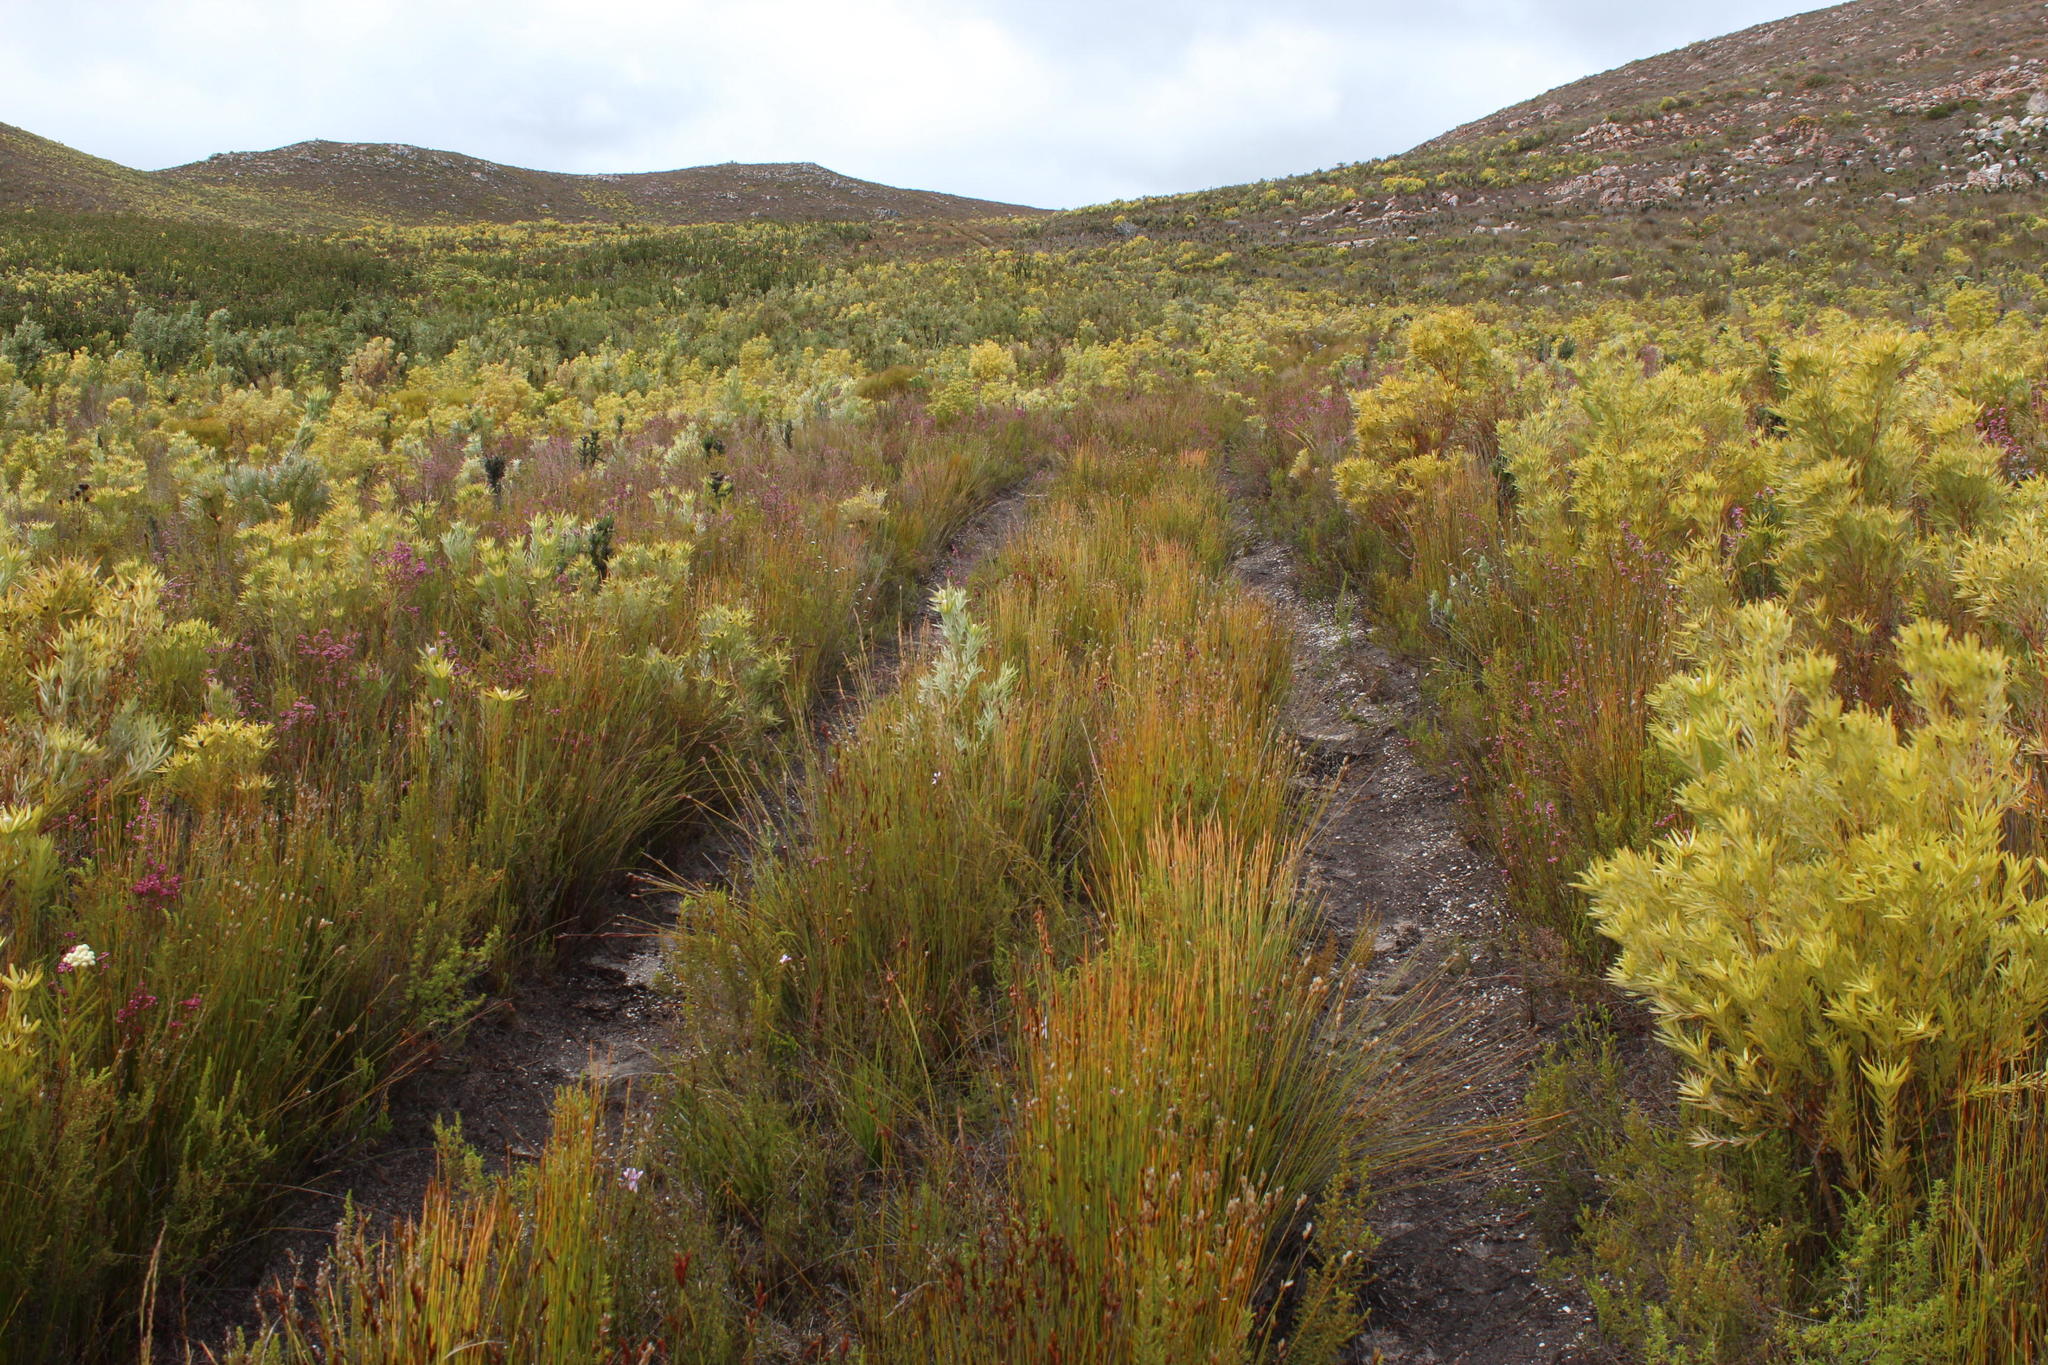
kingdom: Plantae
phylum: Tracheophyta
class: Liliopsida
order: Poales
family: Restionaceae
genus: Elegia
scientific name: Elegia filacea
